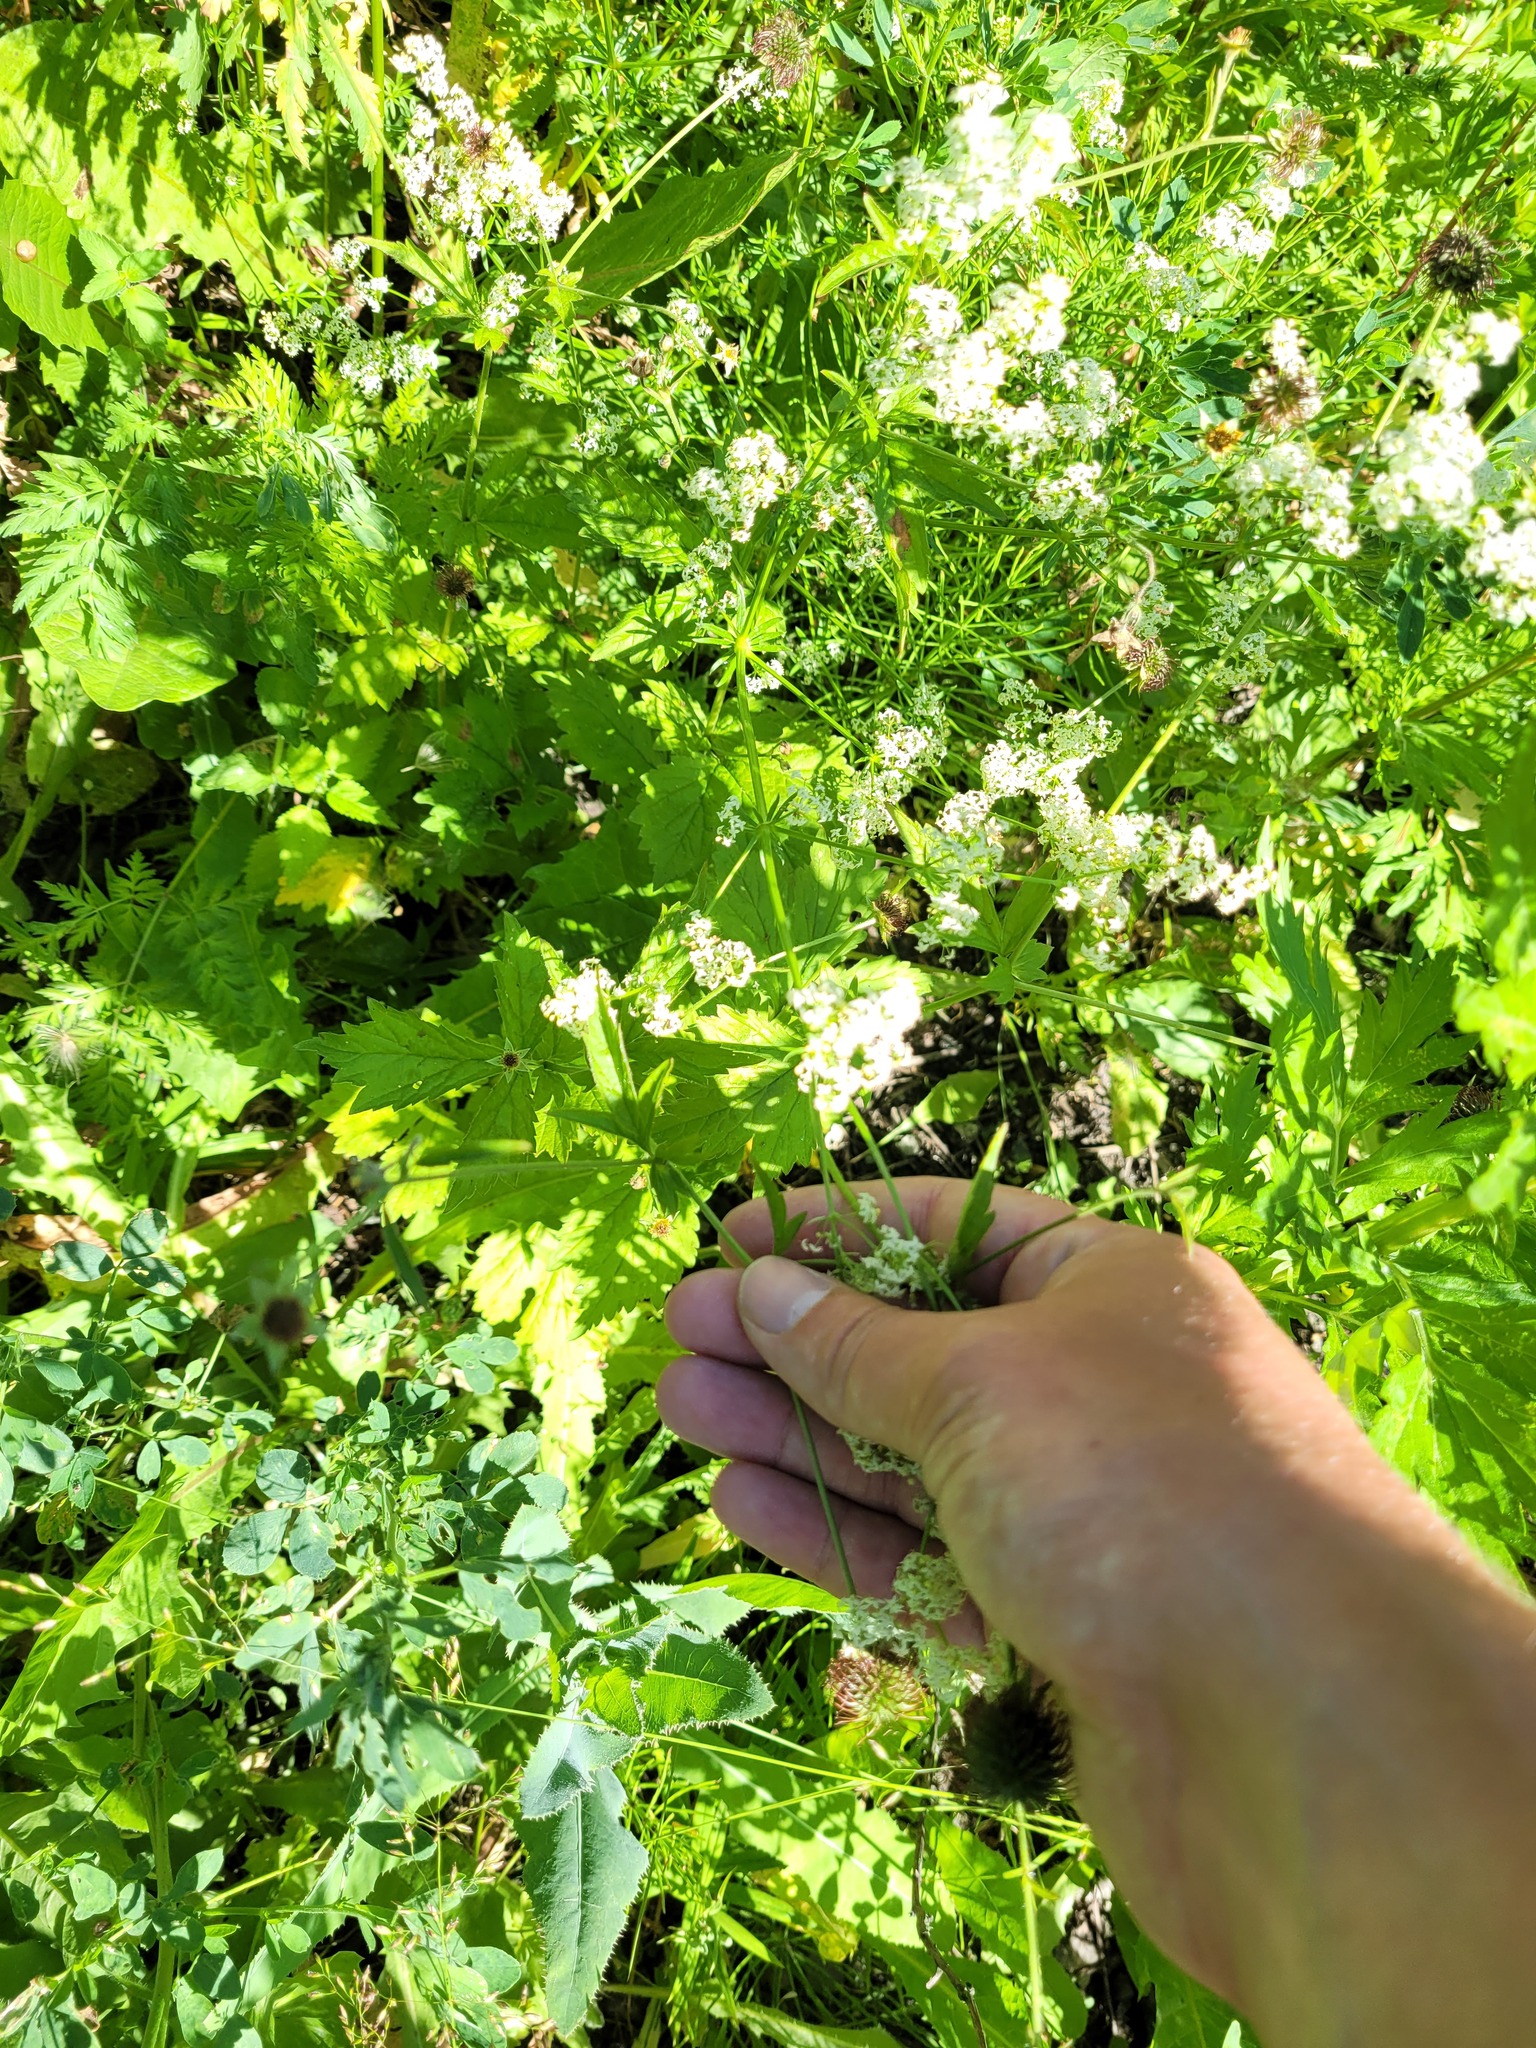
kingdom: Plantae
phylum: Tracheophyta
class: Magnoliopsida
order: Rosales
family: Rosaceae
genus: Geum
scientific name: Geum urbanum
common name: Wood avens
